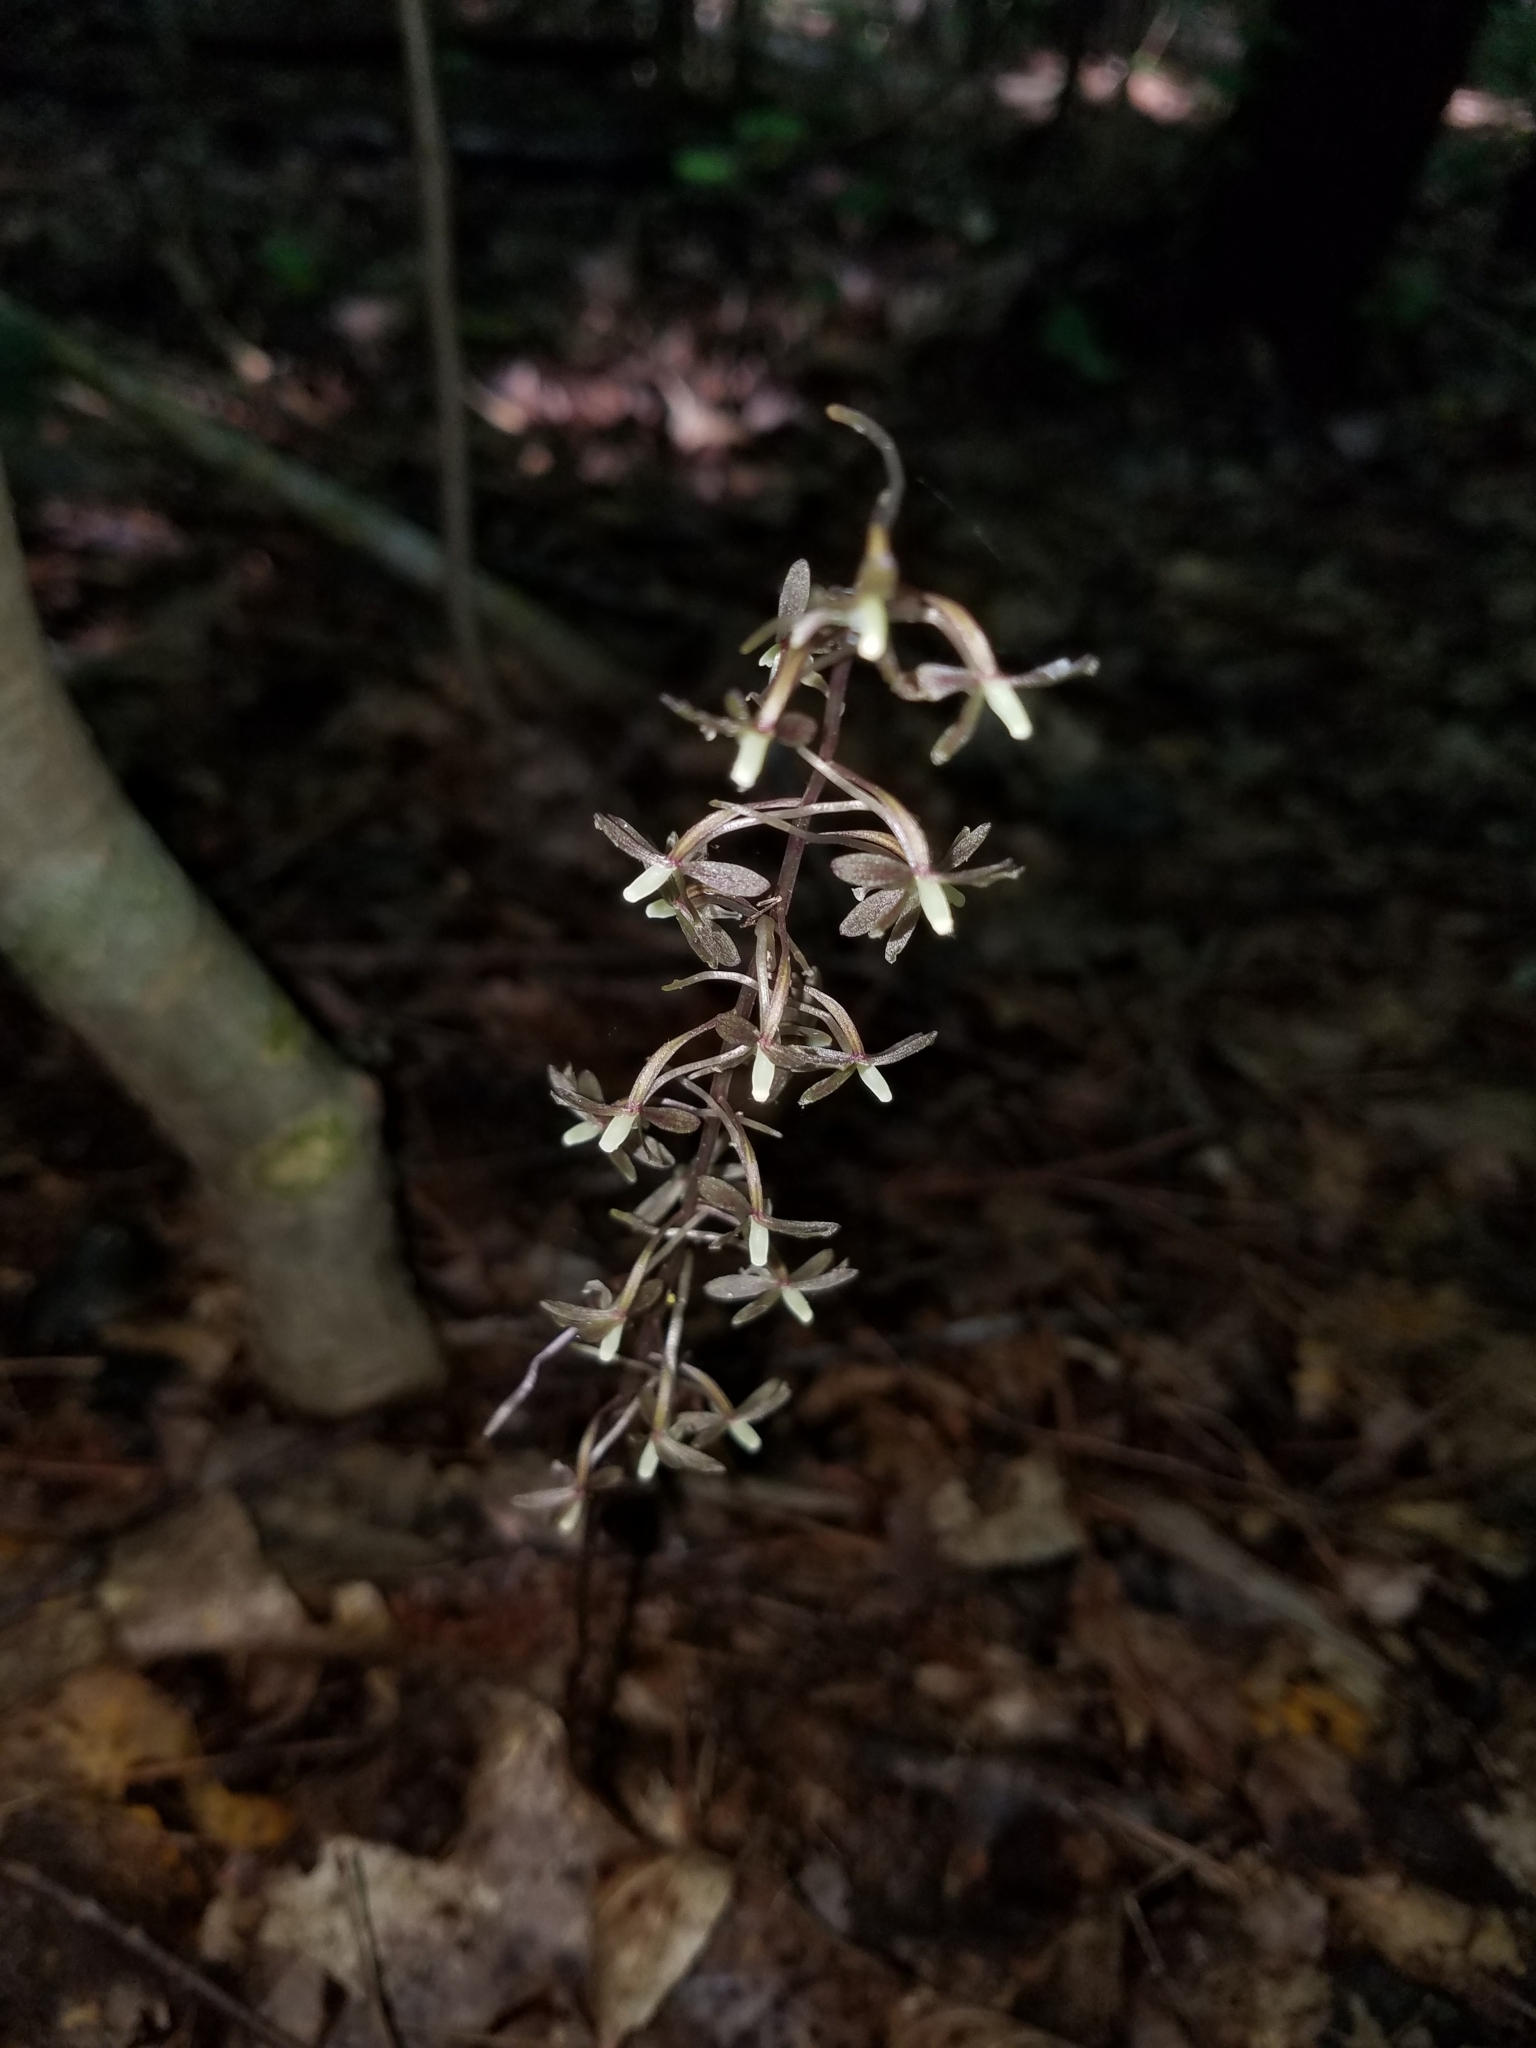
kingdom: Plantae
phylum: Tracheophyta
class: Liliopsida
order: Asparagales
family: Orchidaceae
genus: Tipularia
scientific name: Tipularia discolor
